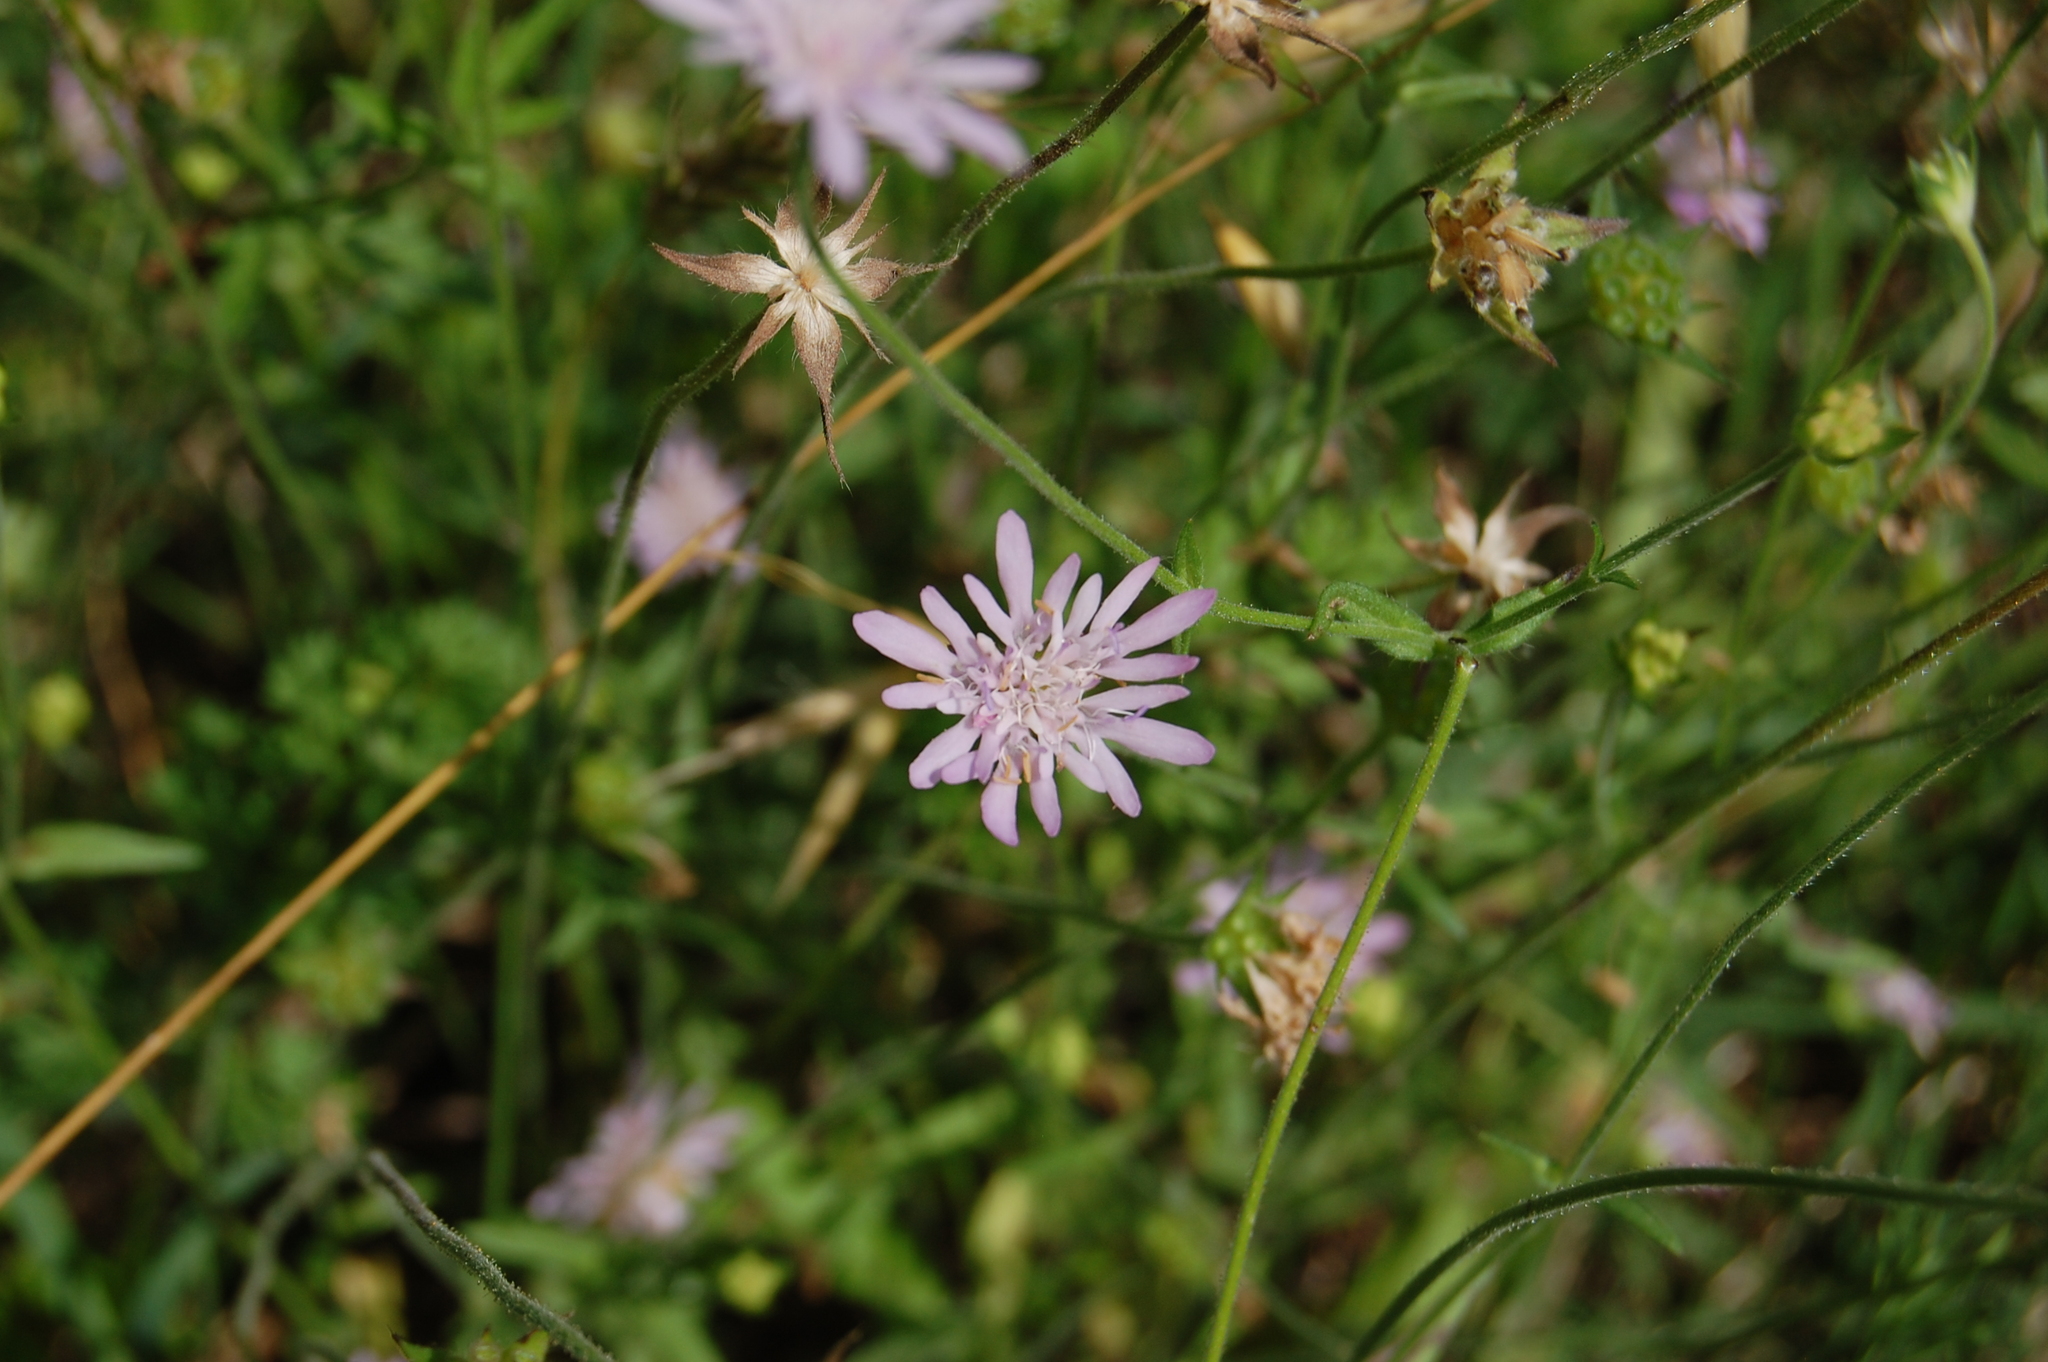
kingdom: Plantae
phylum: Tracheophyta
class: Magnoliopsida
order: Dipsacales
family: Caprifoliaceae
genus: Knautia
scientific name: Knautia integrifolia
